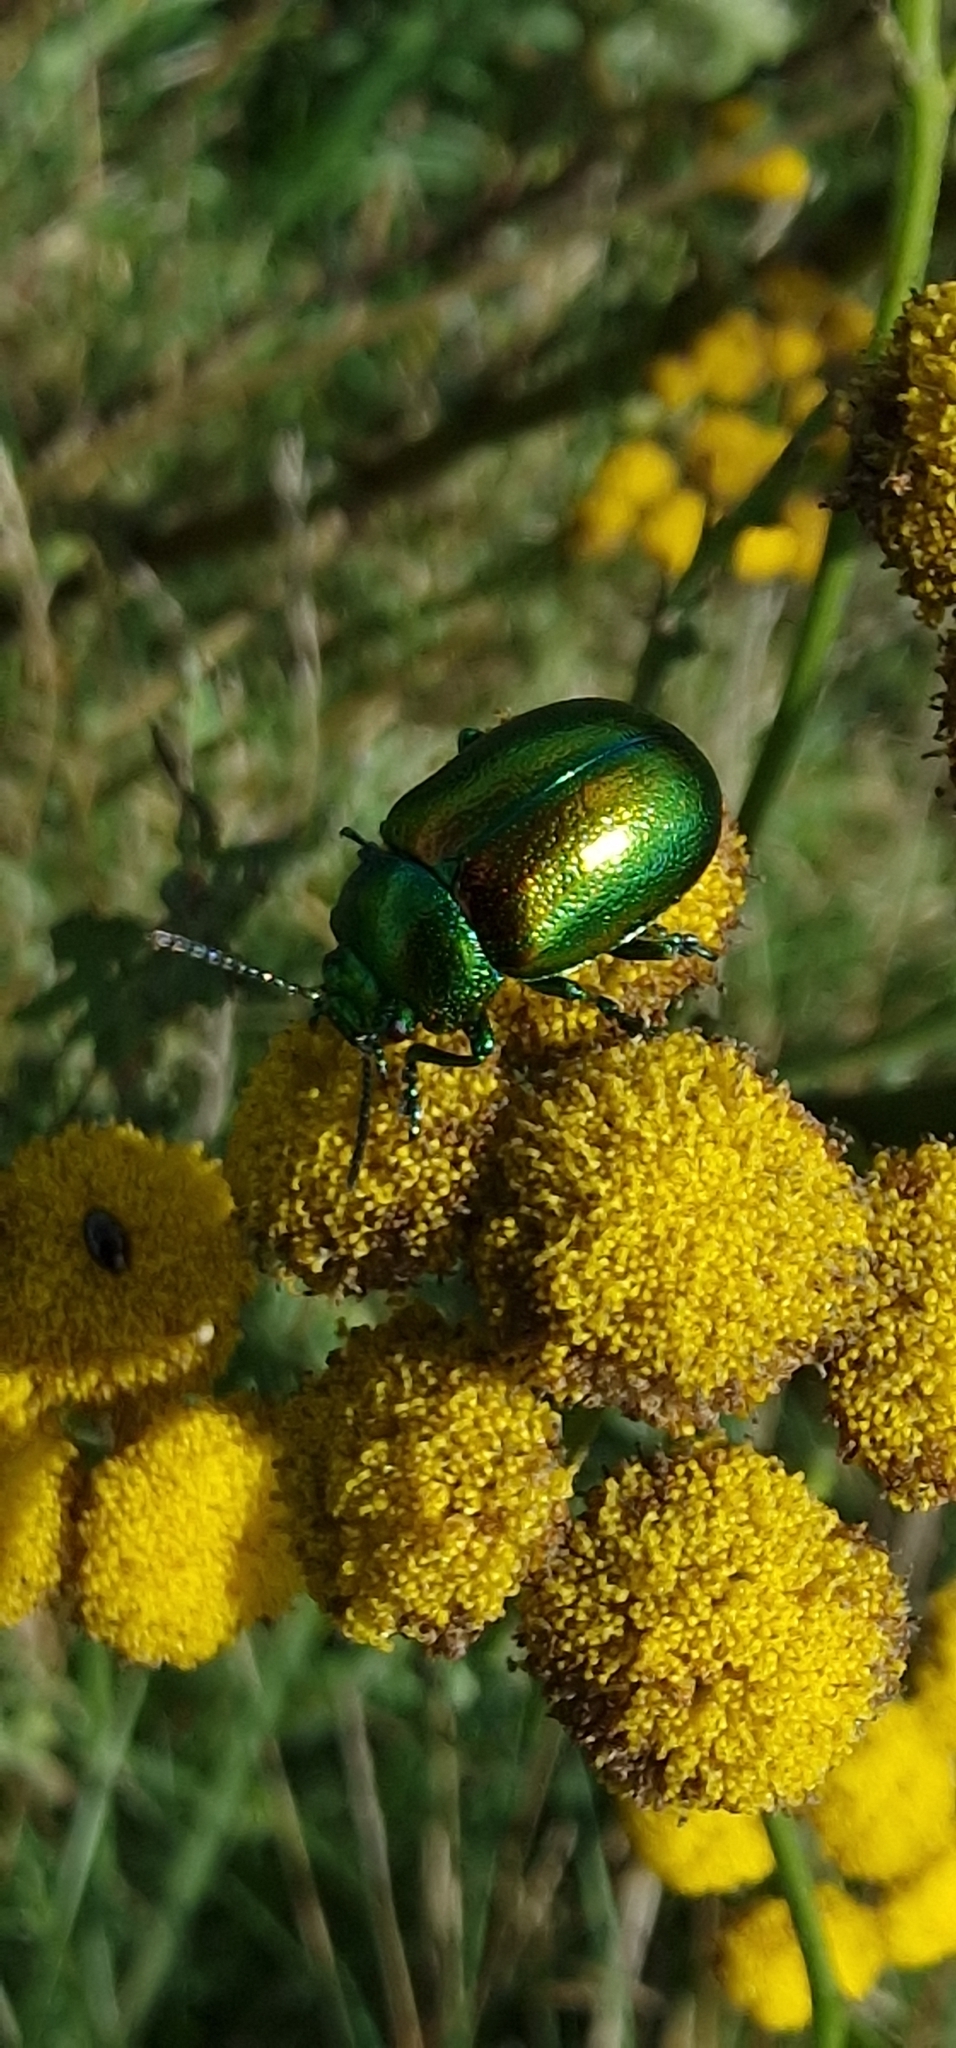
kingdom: Animalia
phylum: Arthropoda
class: Insecta
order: Coleoptera
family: Chrysomelidae
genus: Chrysolina
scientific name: Chrysolina graminis
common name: Tansey beetle
